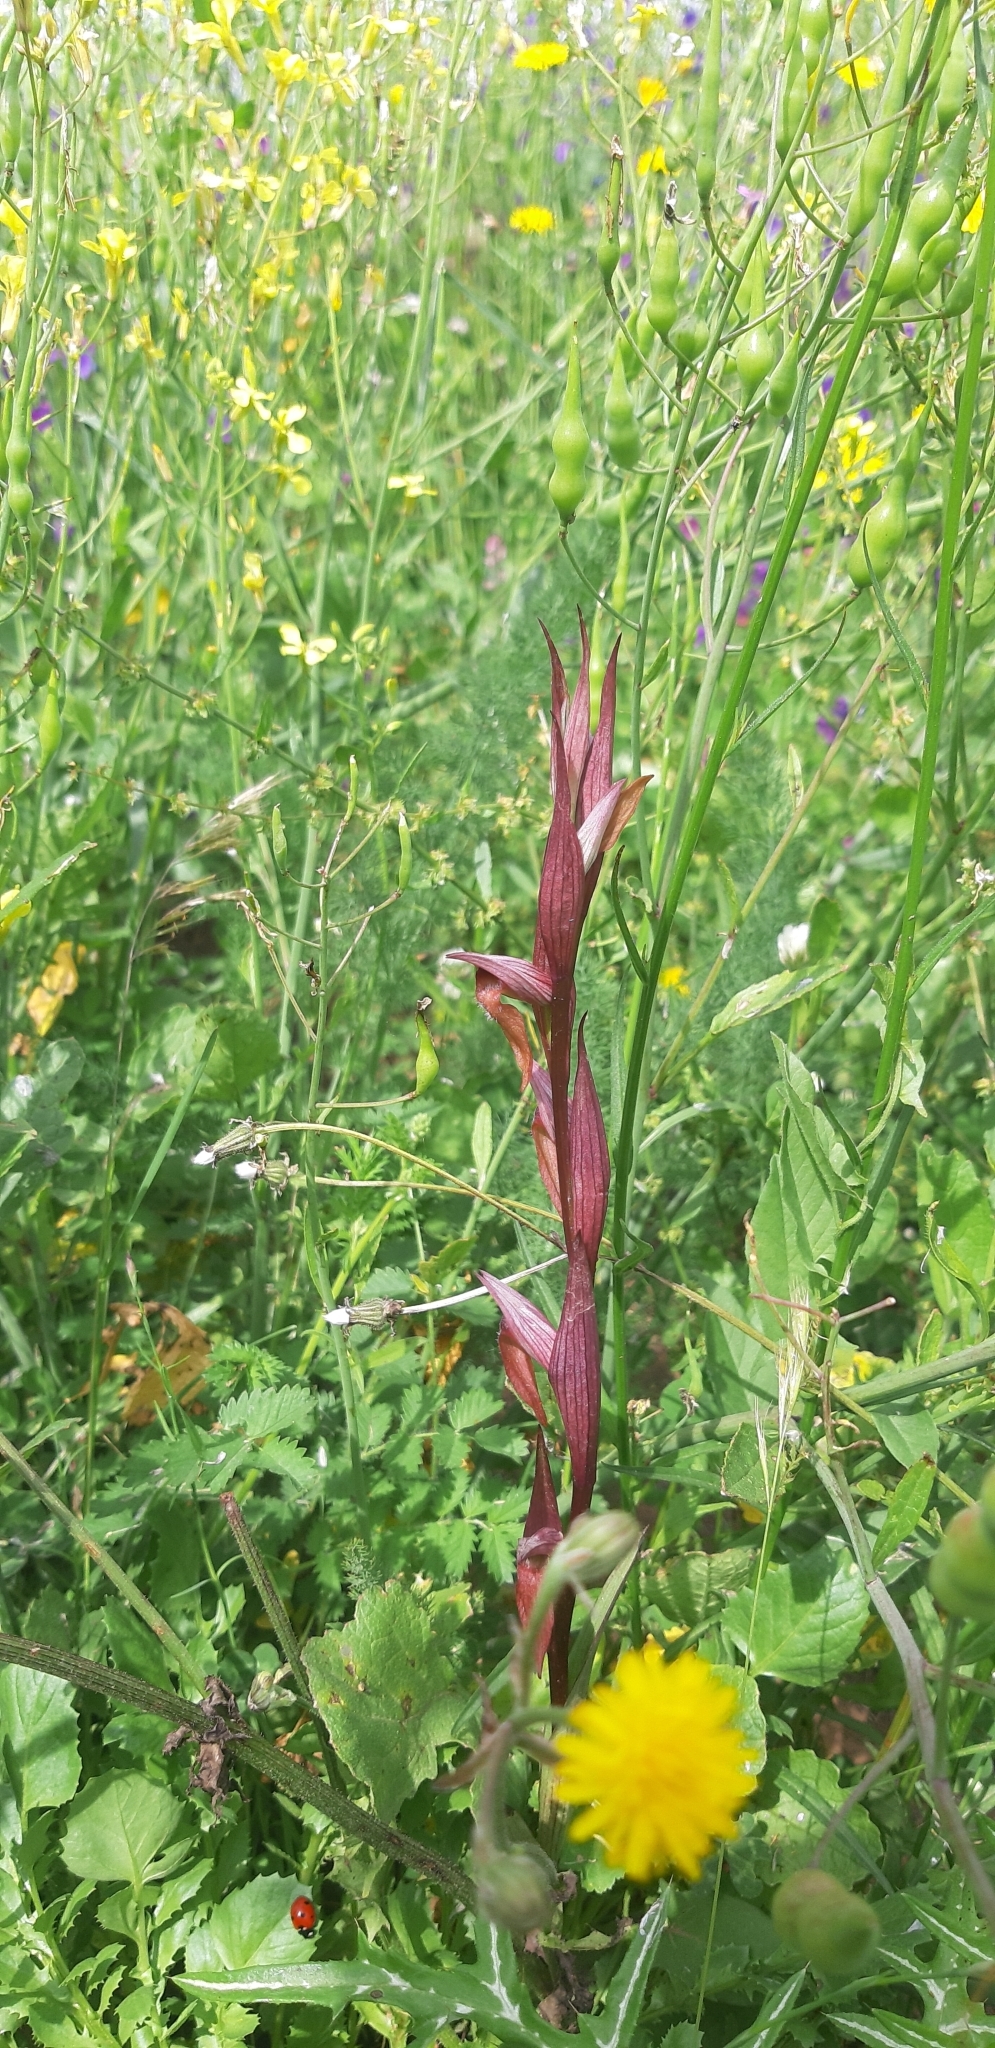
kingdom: Plantae
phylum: Tracheophyta
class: Liliopsida
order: Asparagales
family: Orchidaceae
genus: Serapias
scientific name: Serapias vomeracea
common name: Long-lipped tongue-orchid
